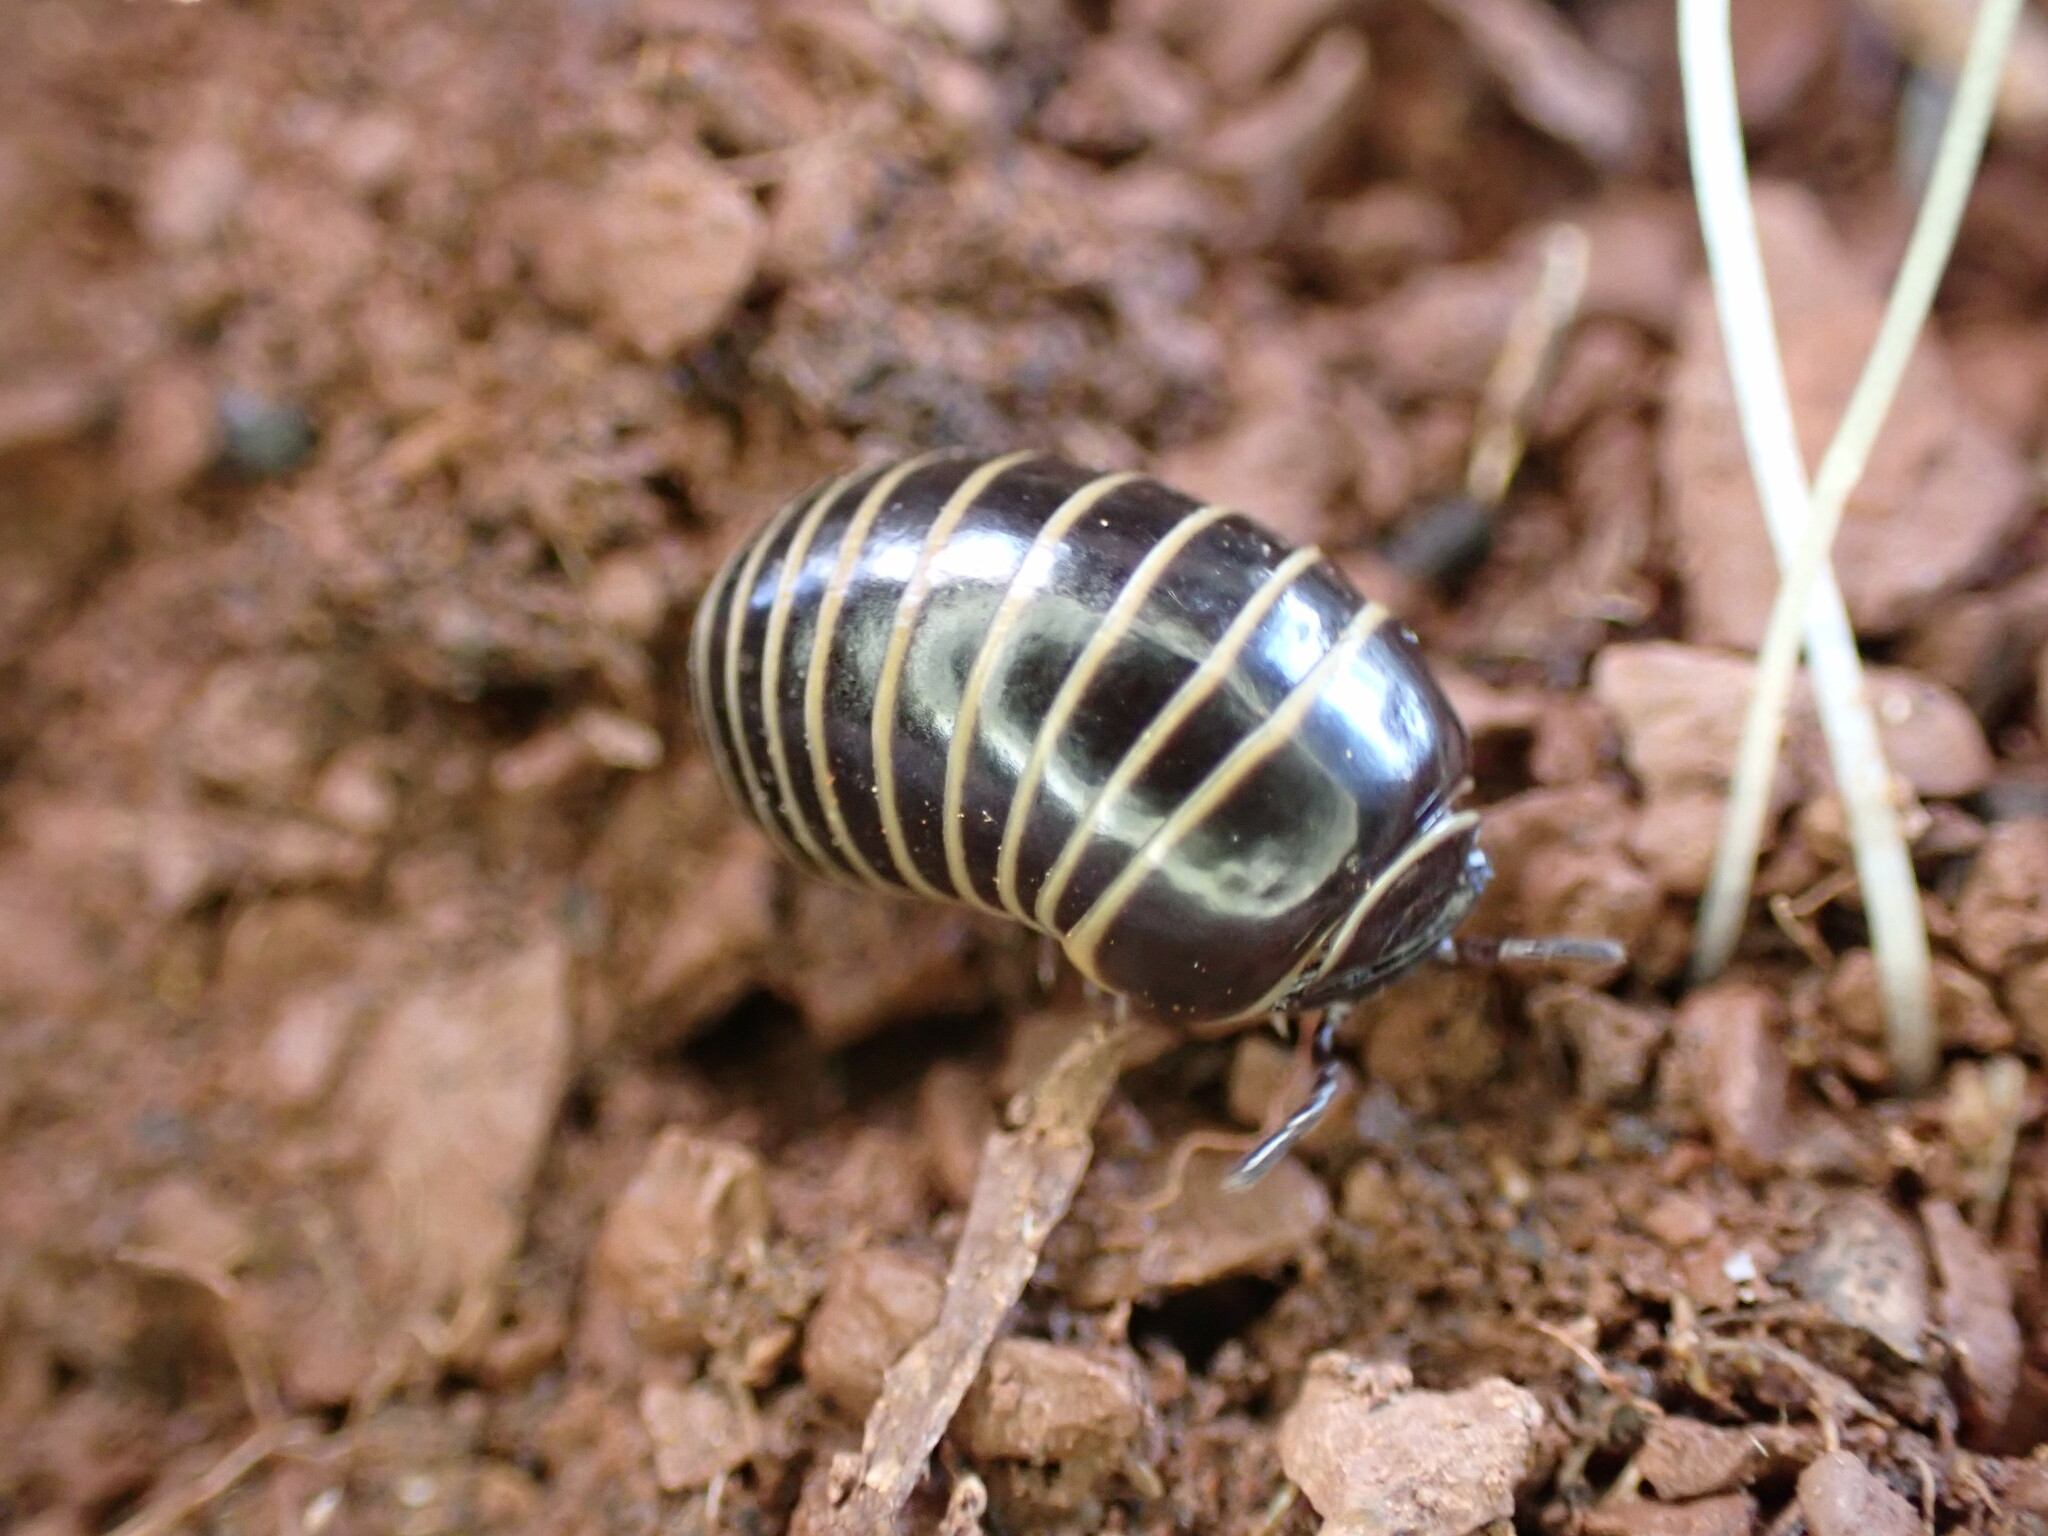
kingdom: Animalia
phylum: Arthropoda
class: Diplopoda
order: Glomerida
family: Glomeridae
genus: Glomeris
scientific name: Glomeris marginata
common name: Bordered pill millipede
